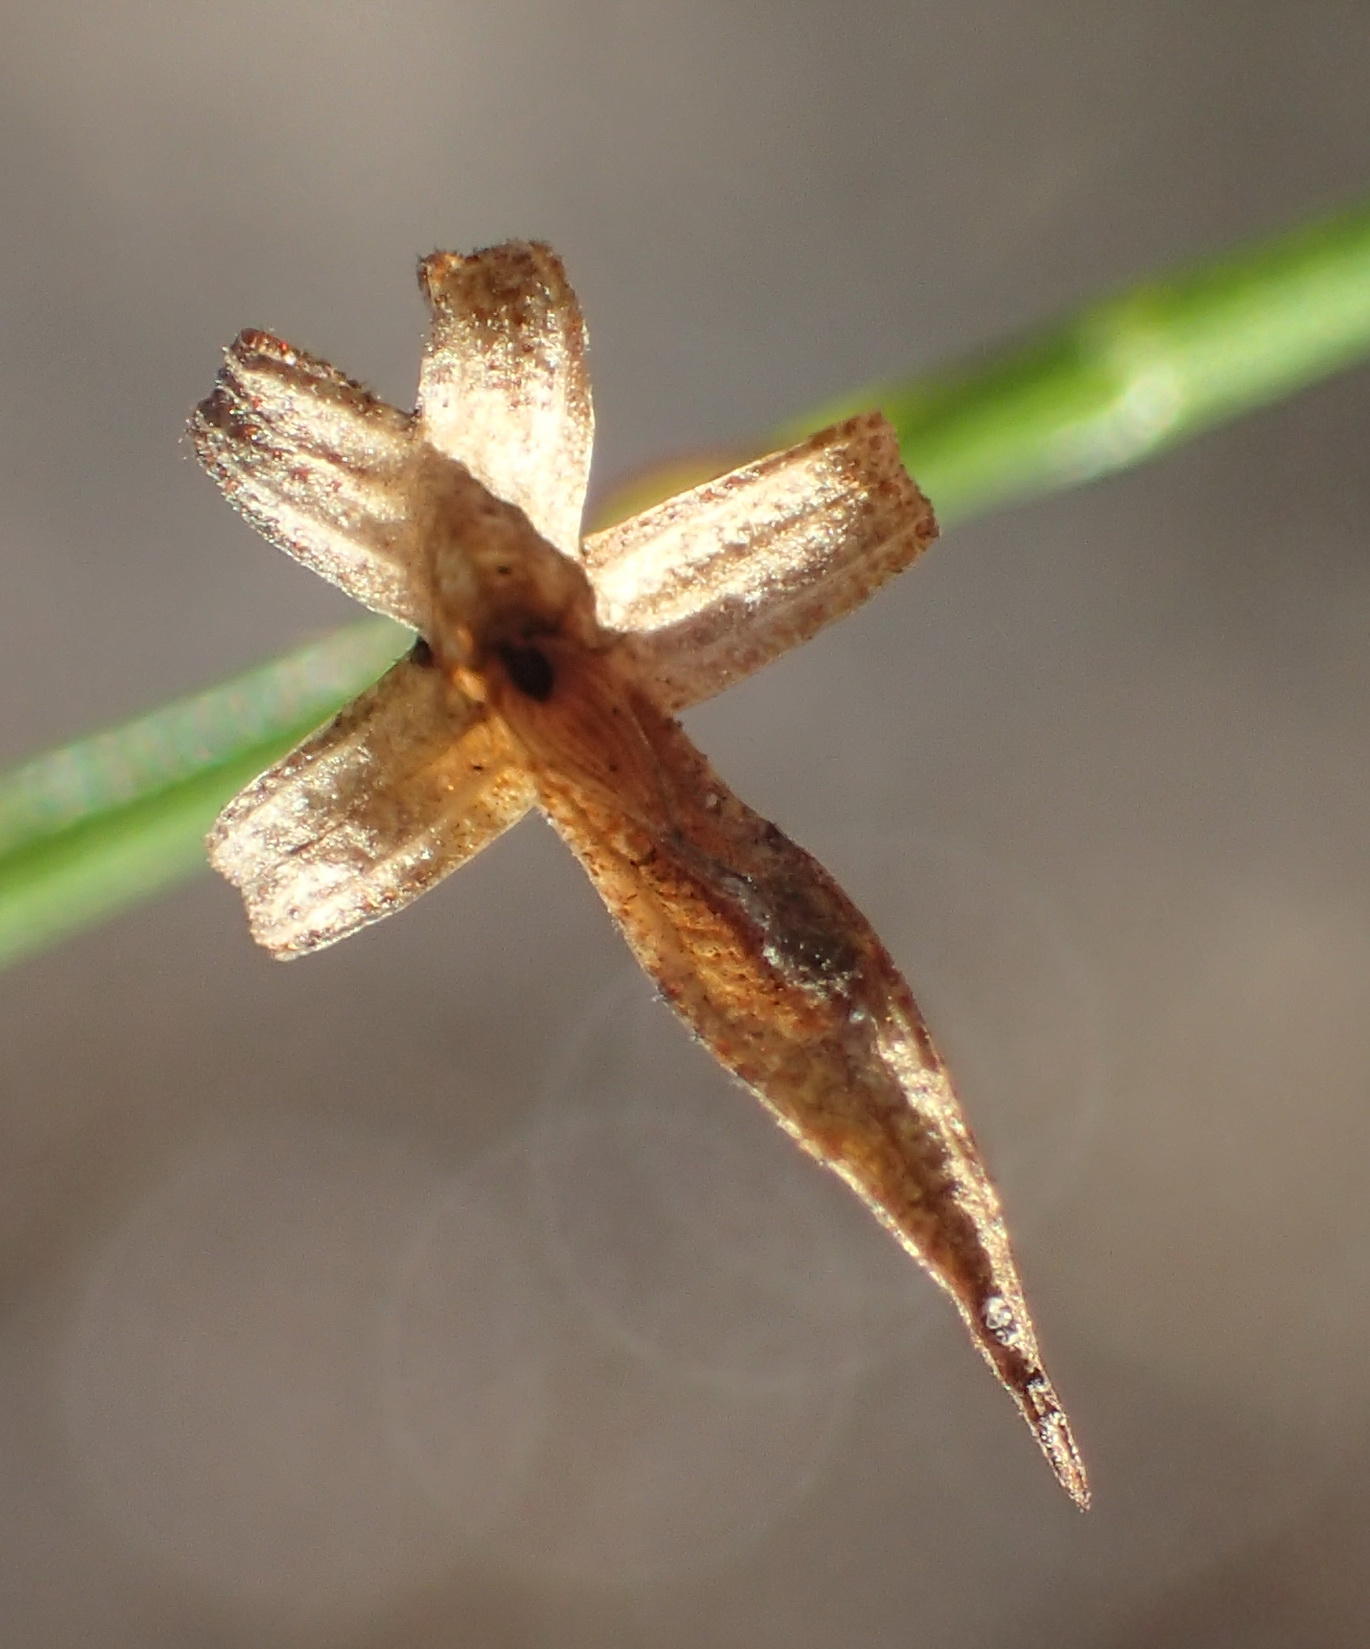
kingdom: Plantae
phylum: Tracheophyta
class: Magnoliopsida
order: Fabales
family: Fabaceae
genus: Psoralea
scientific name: Psoralea trullata
